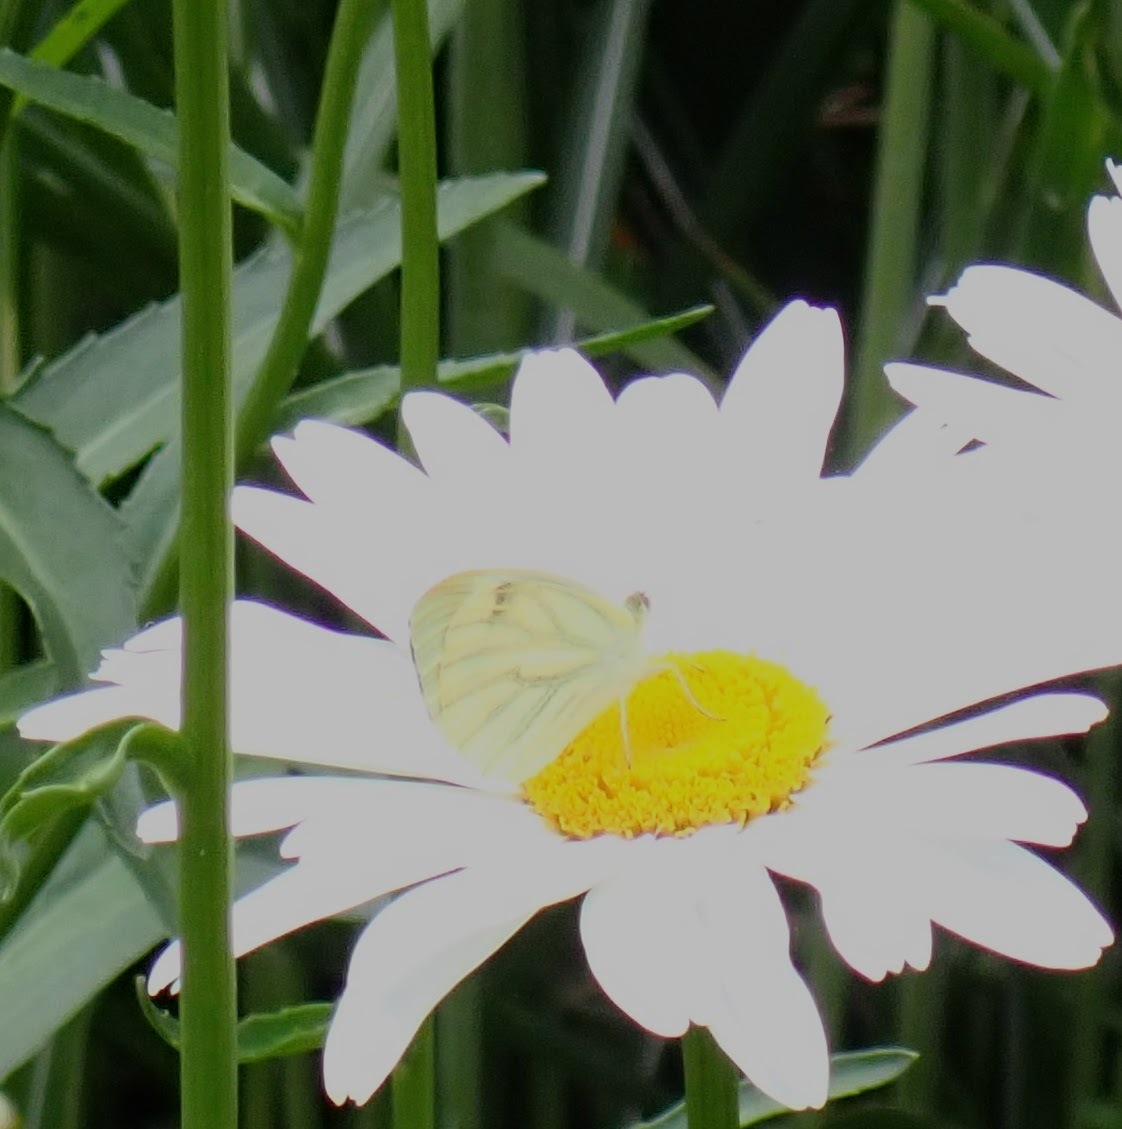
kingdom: Animalia
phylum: Arthropoda
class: Insecta
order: Lepidoptera
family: Pieridae
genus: Pieris
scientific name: Pieris napi
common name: Green-veined white
